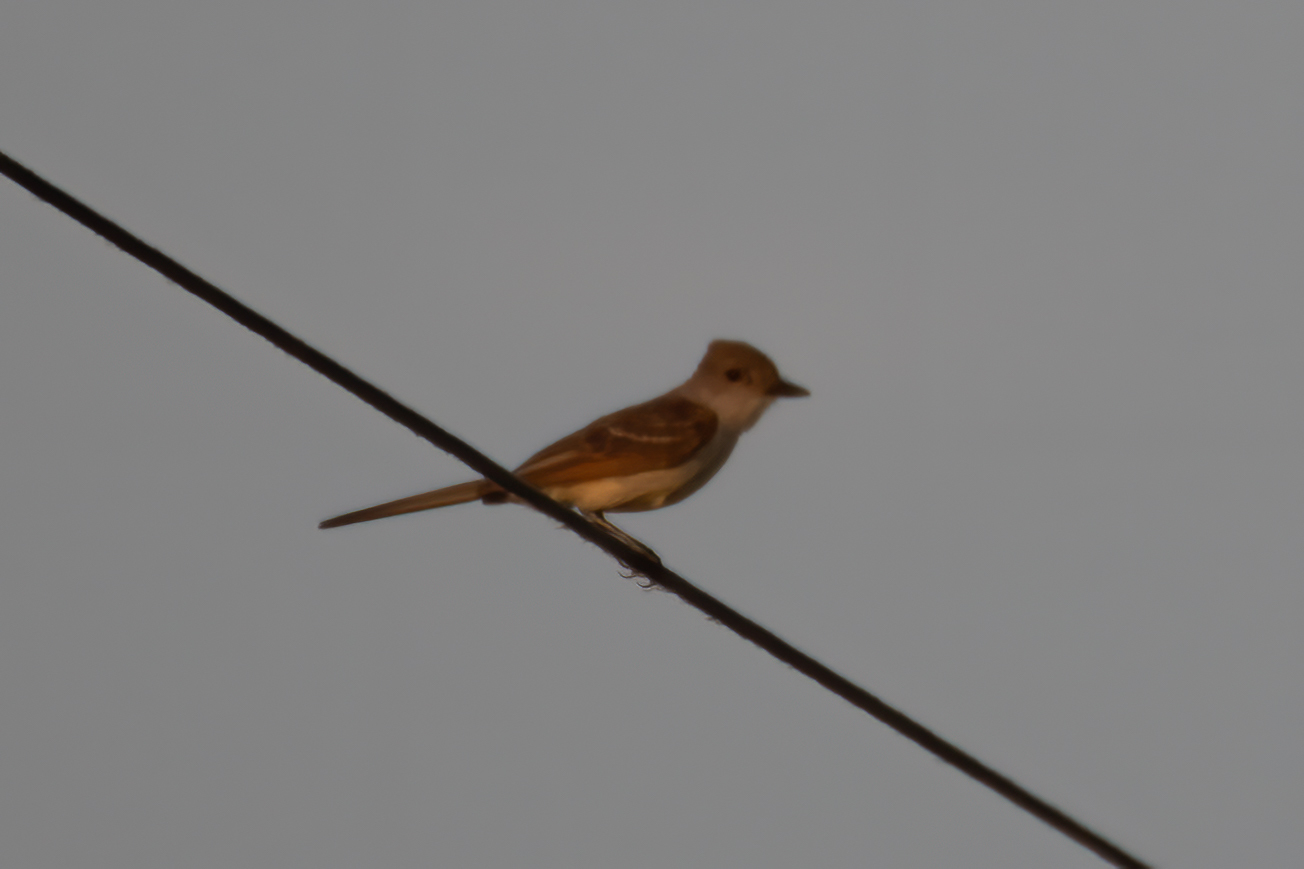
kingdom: Animalia
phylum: Chordata
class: Aves
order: Passeriformes
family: Tyrannidae
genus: Myiarchus
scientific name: Myiarchus cinerascens
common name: Ash-throated flycatcher
